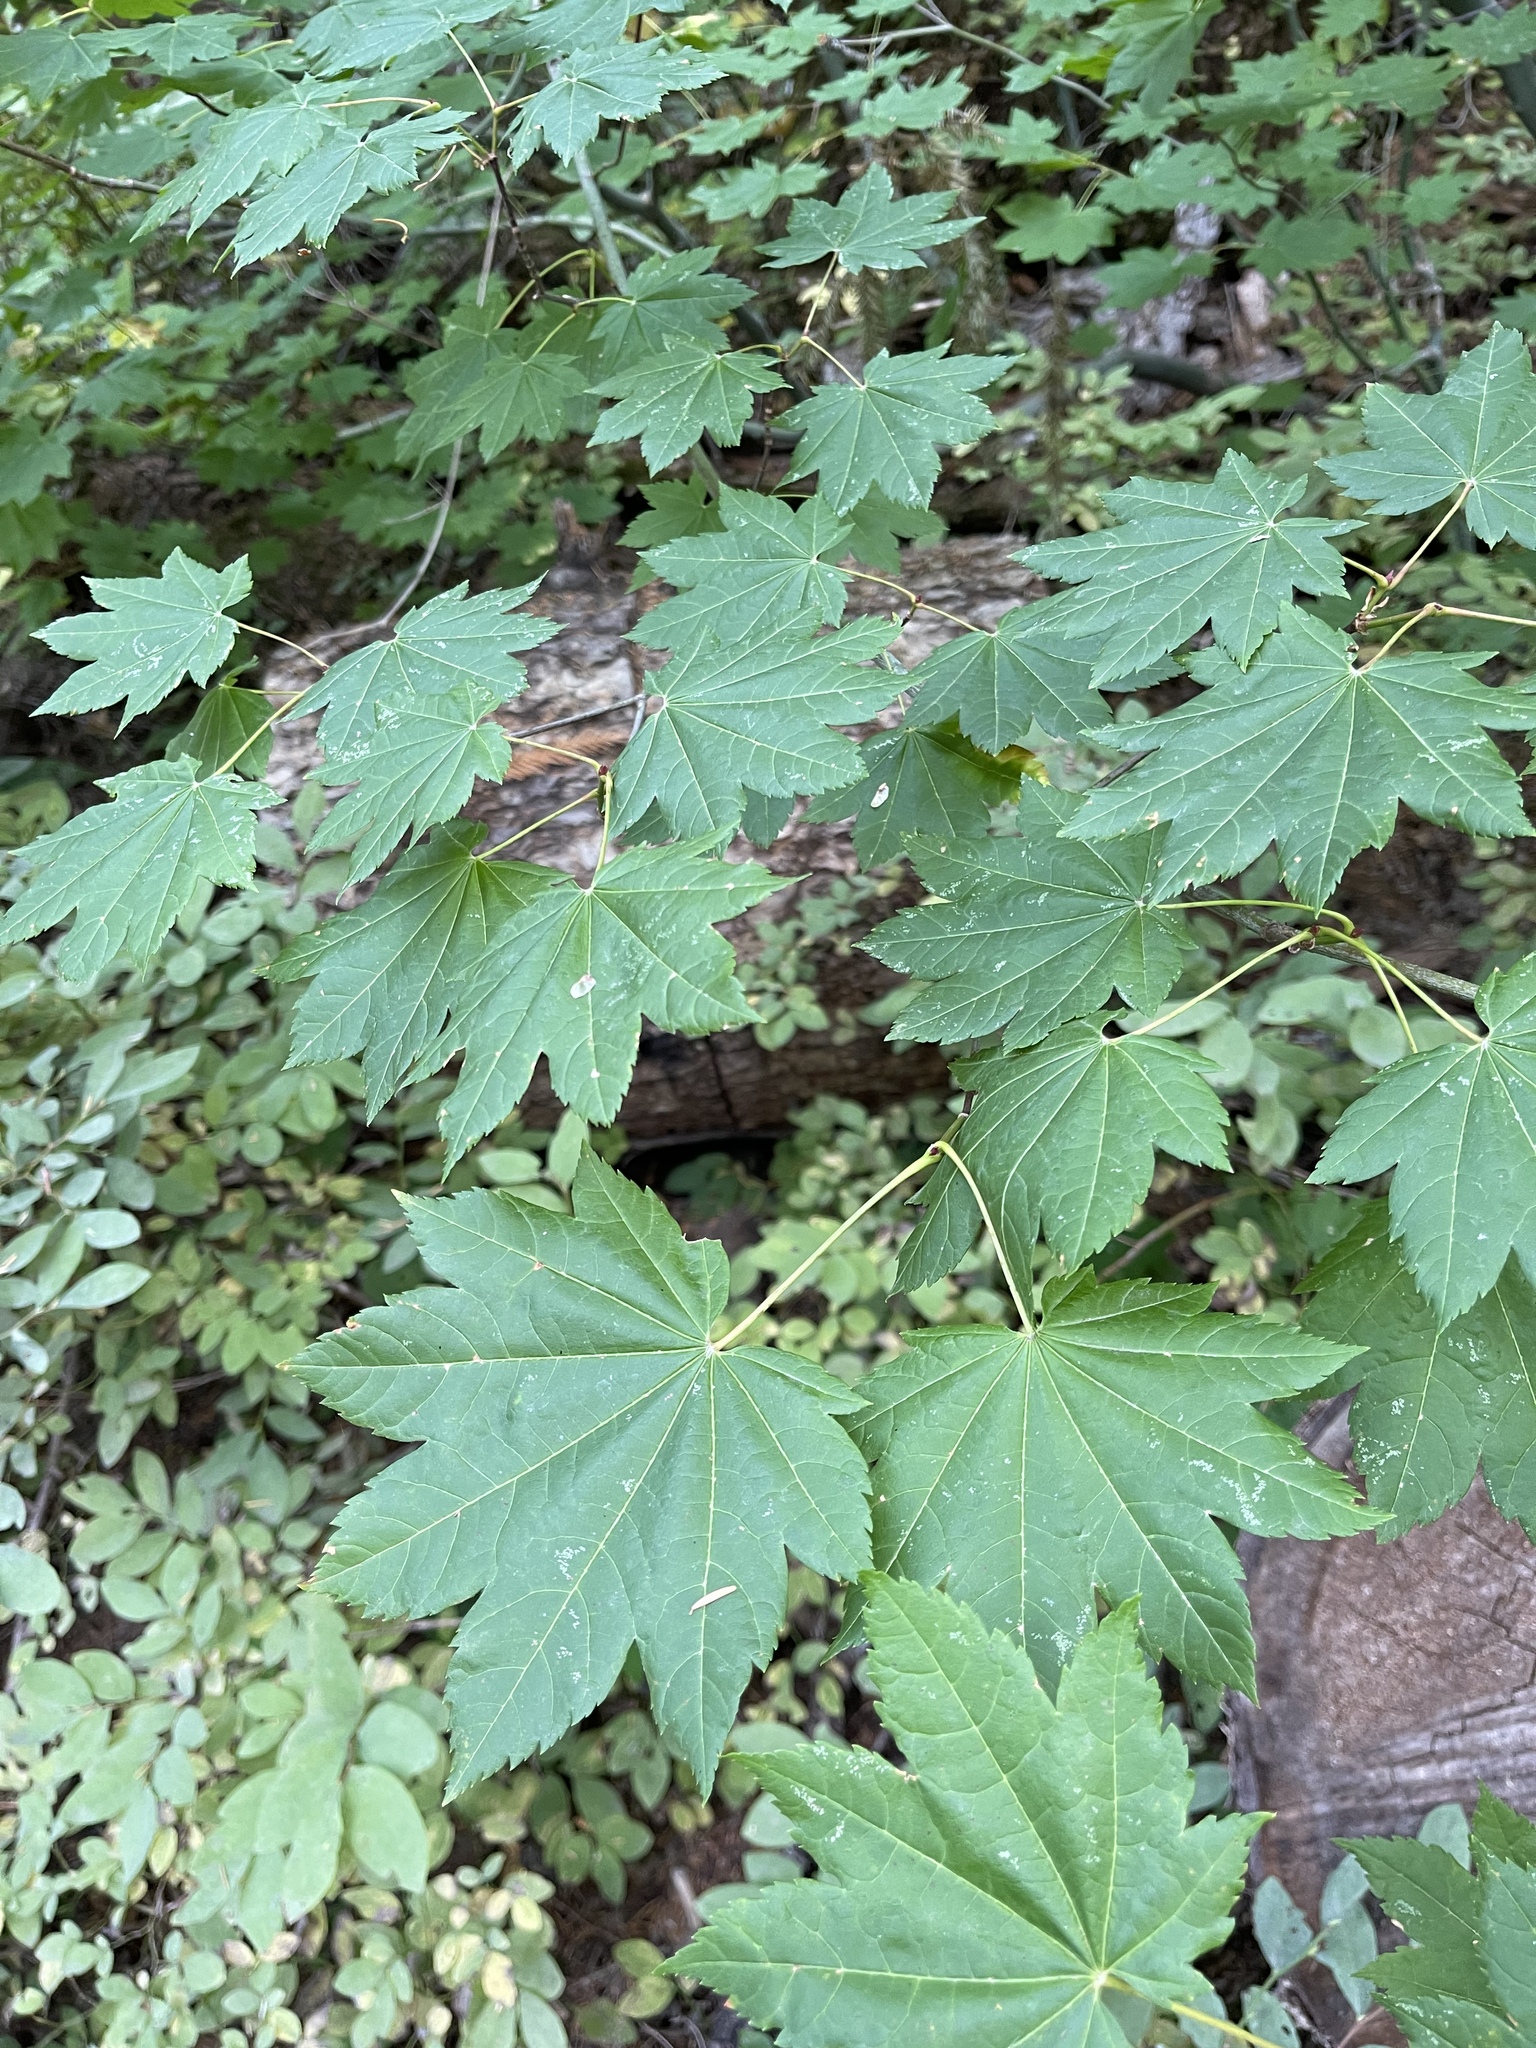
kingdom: Plantae
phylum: Tracheophyta
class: Magnoliopsida
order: Sapindales
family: Sapindaceae
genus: Acer
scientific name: Acer circinatum
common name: Vine maple
